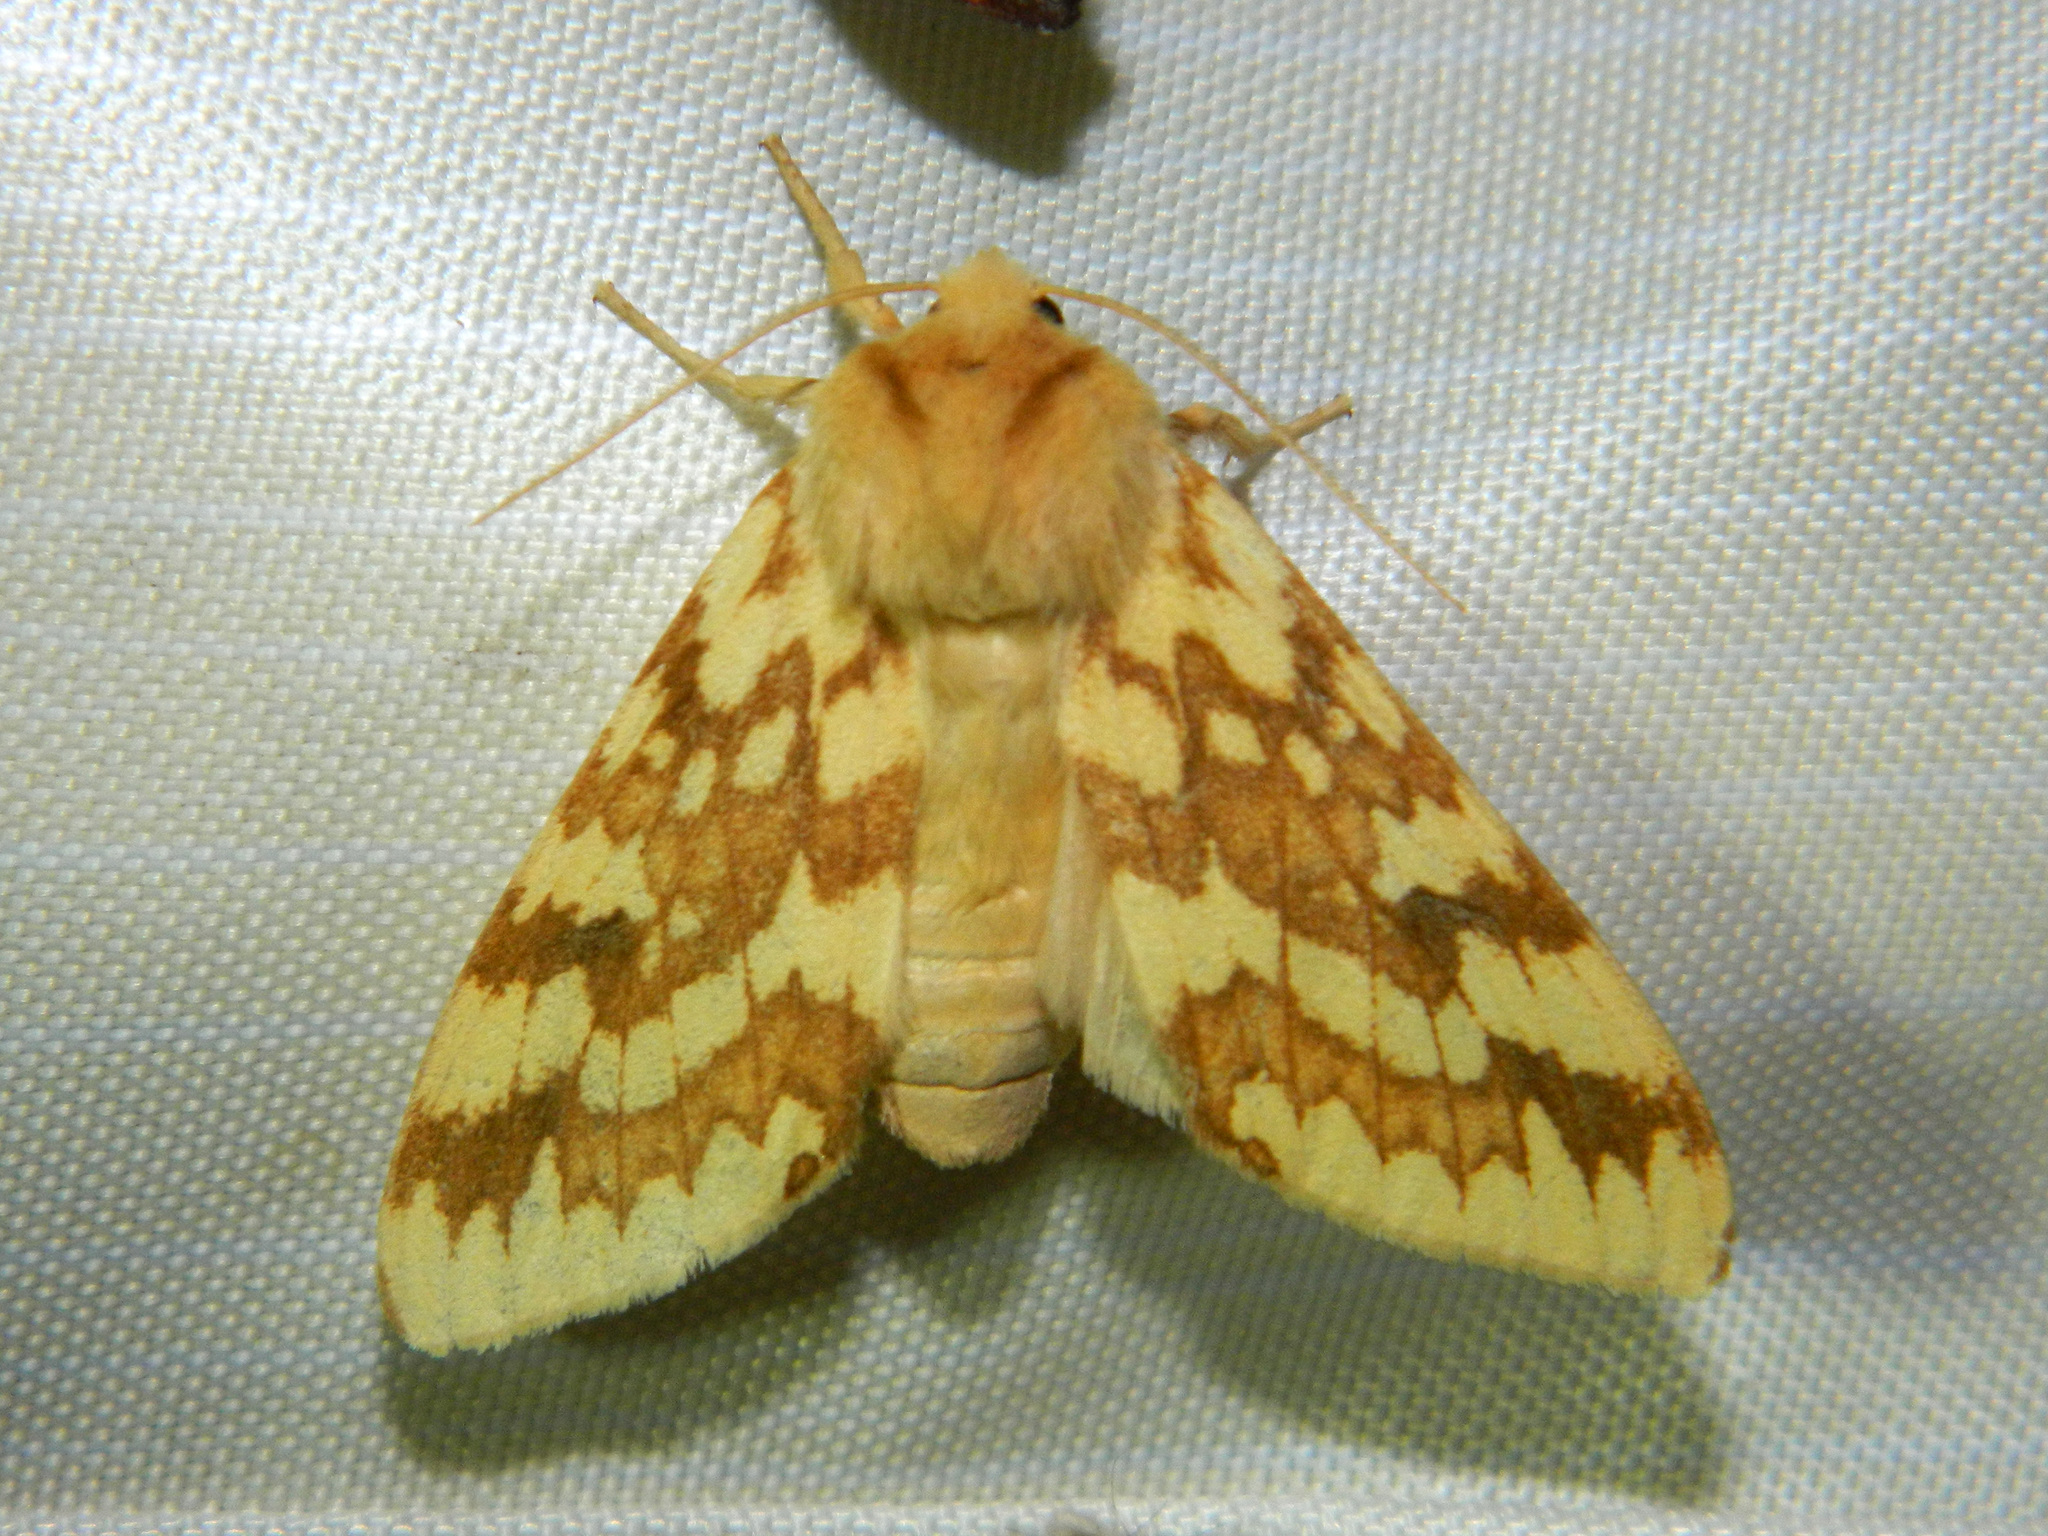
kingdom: Animalia
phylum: Arthropoda
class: Insecta
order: Lepidoptera
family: Erebidae
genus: Lophocampa
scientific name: Lophocampa maculata
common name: Spotted tussock moth
